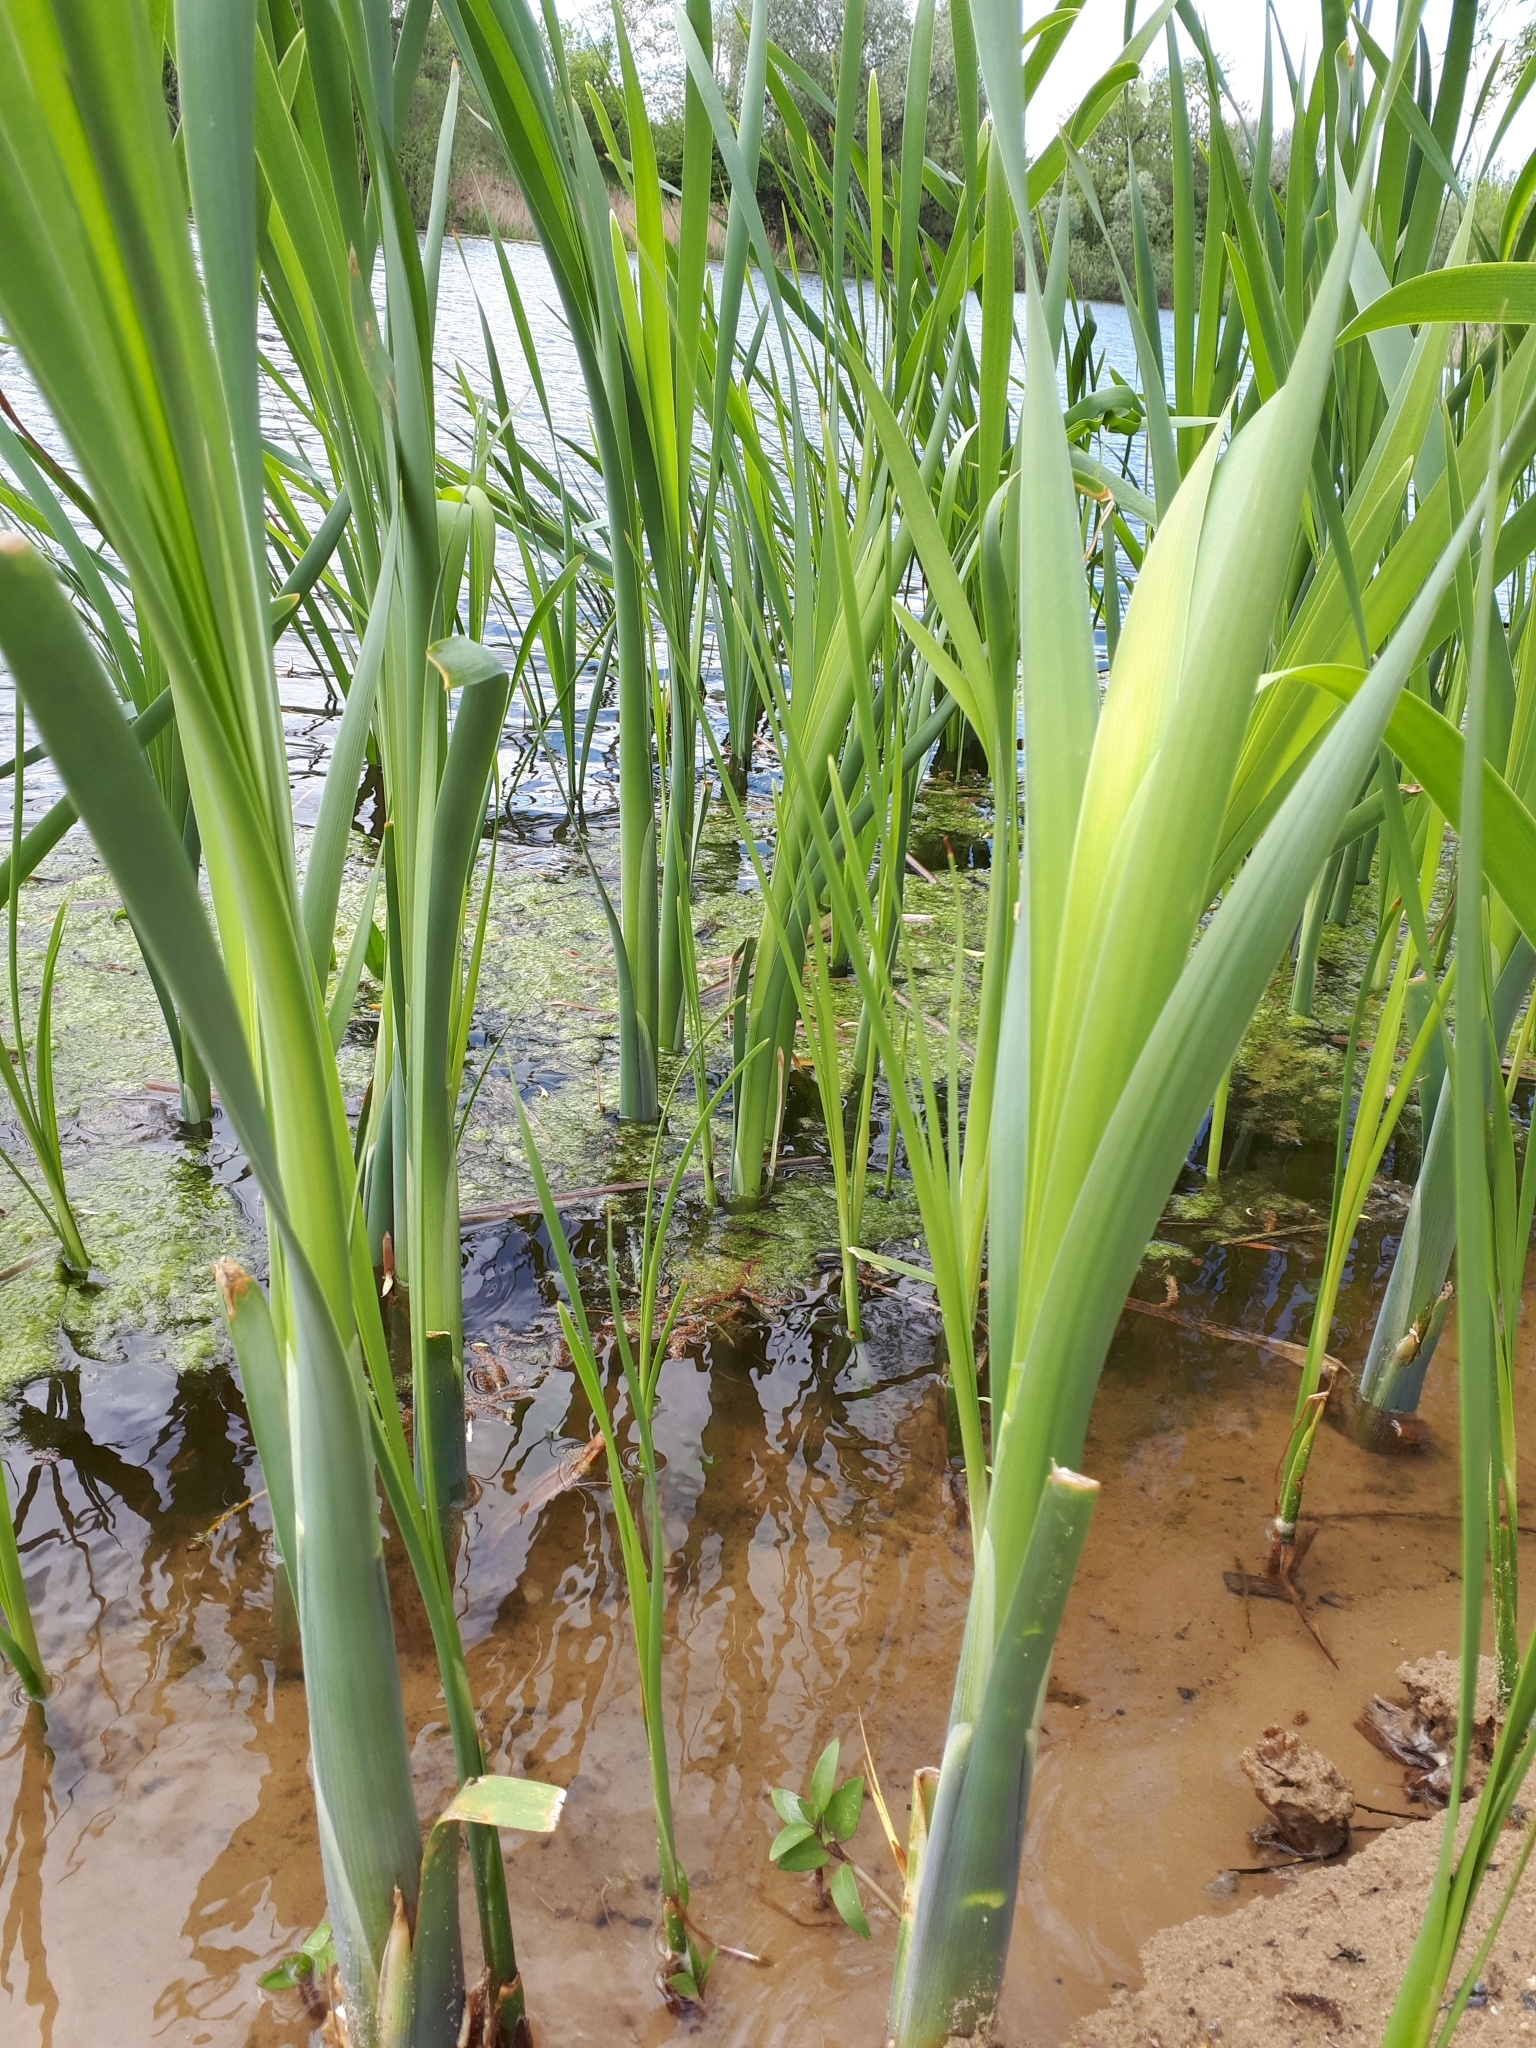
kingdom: Plantae
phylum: Tracheophyta
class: Liliopsida
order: Poales
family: Typhaceae
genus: Typha
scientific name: Typha latifolia
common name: Broadleaf cattail
